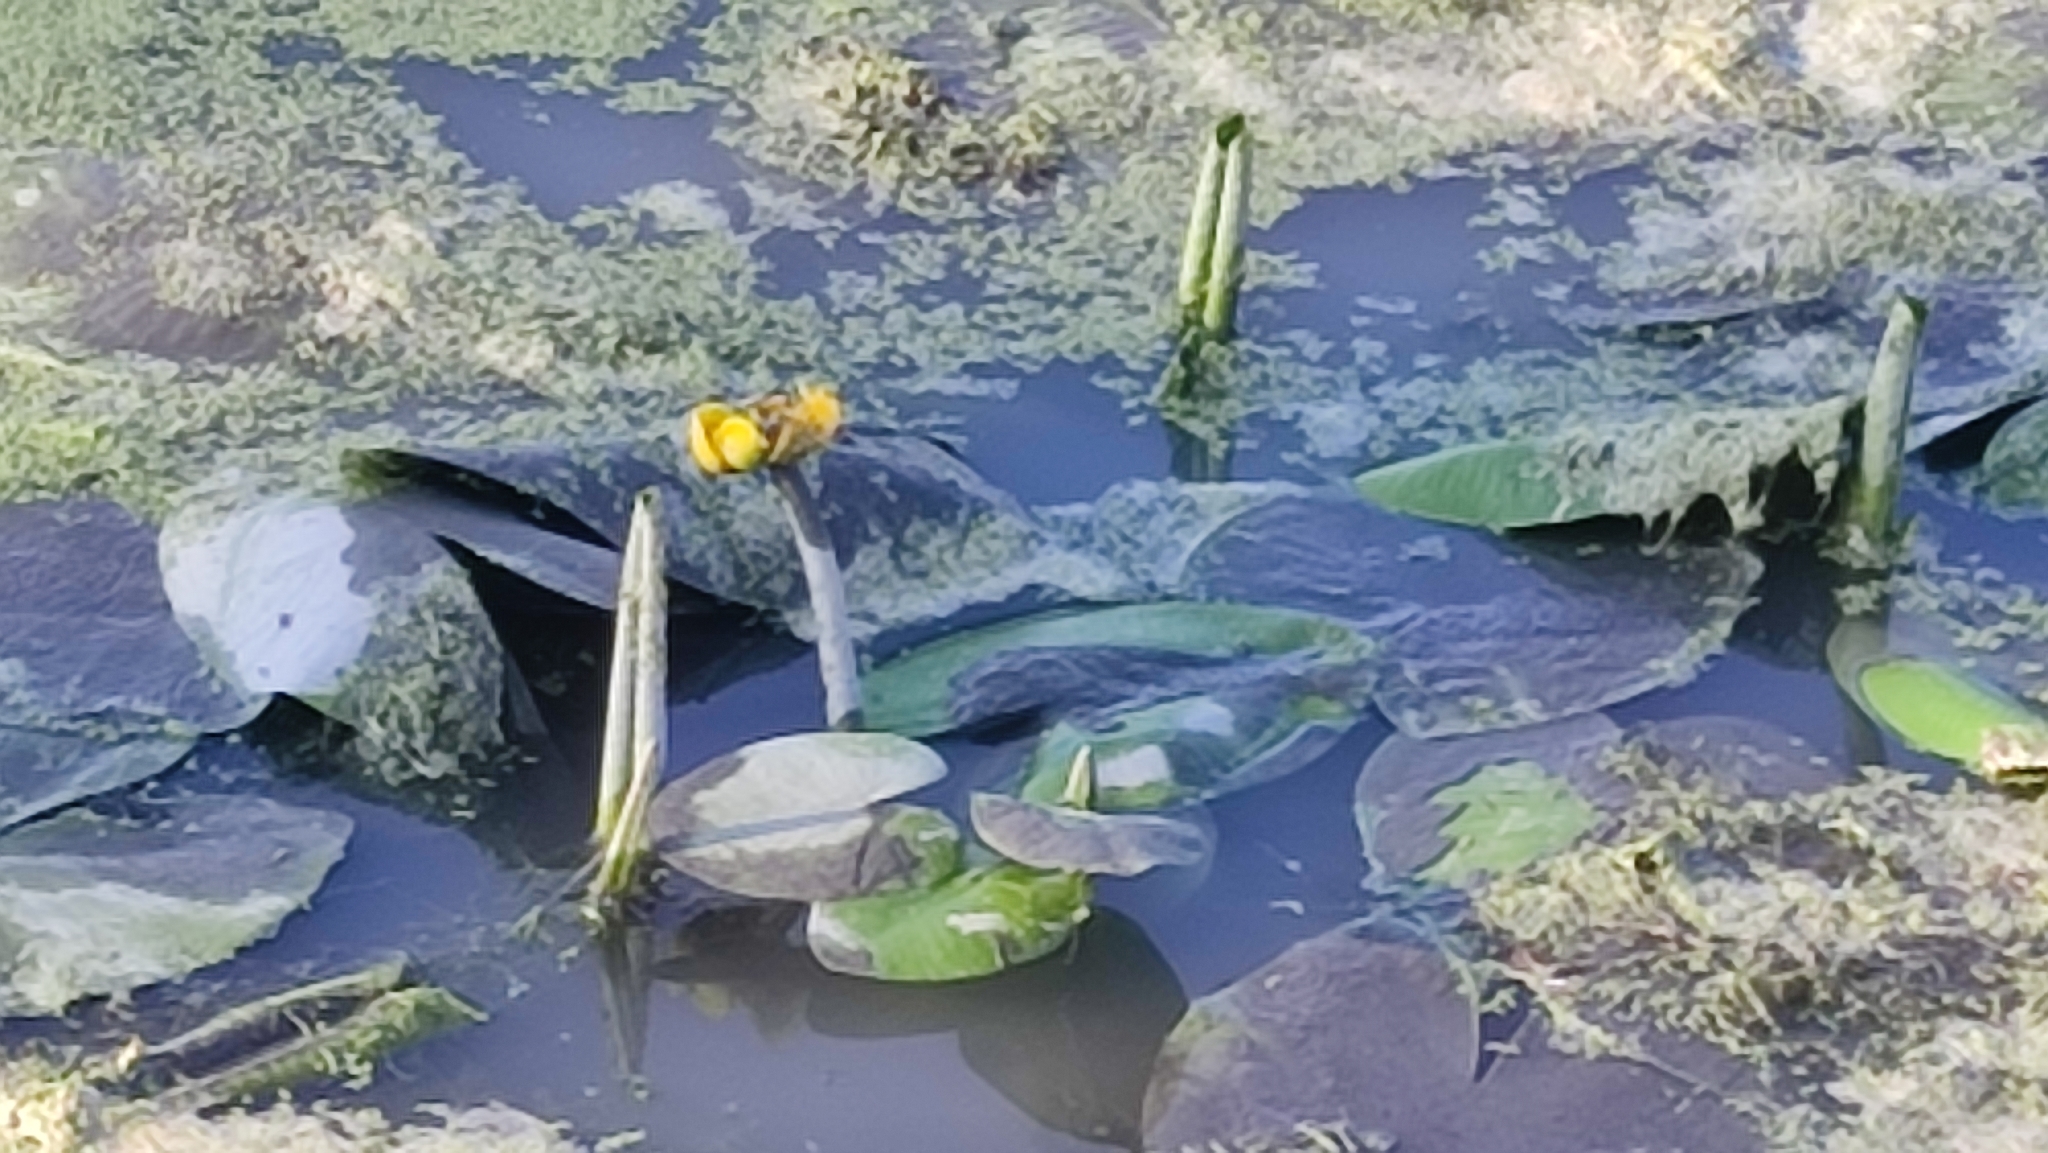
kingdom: Plantae
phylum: Tracheophyta
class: Magnoliopsida
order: Nymphaeales
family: Nymphaeaceae
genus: Nuphar
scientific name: Nuphar lutea
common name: Yellow water-lily
